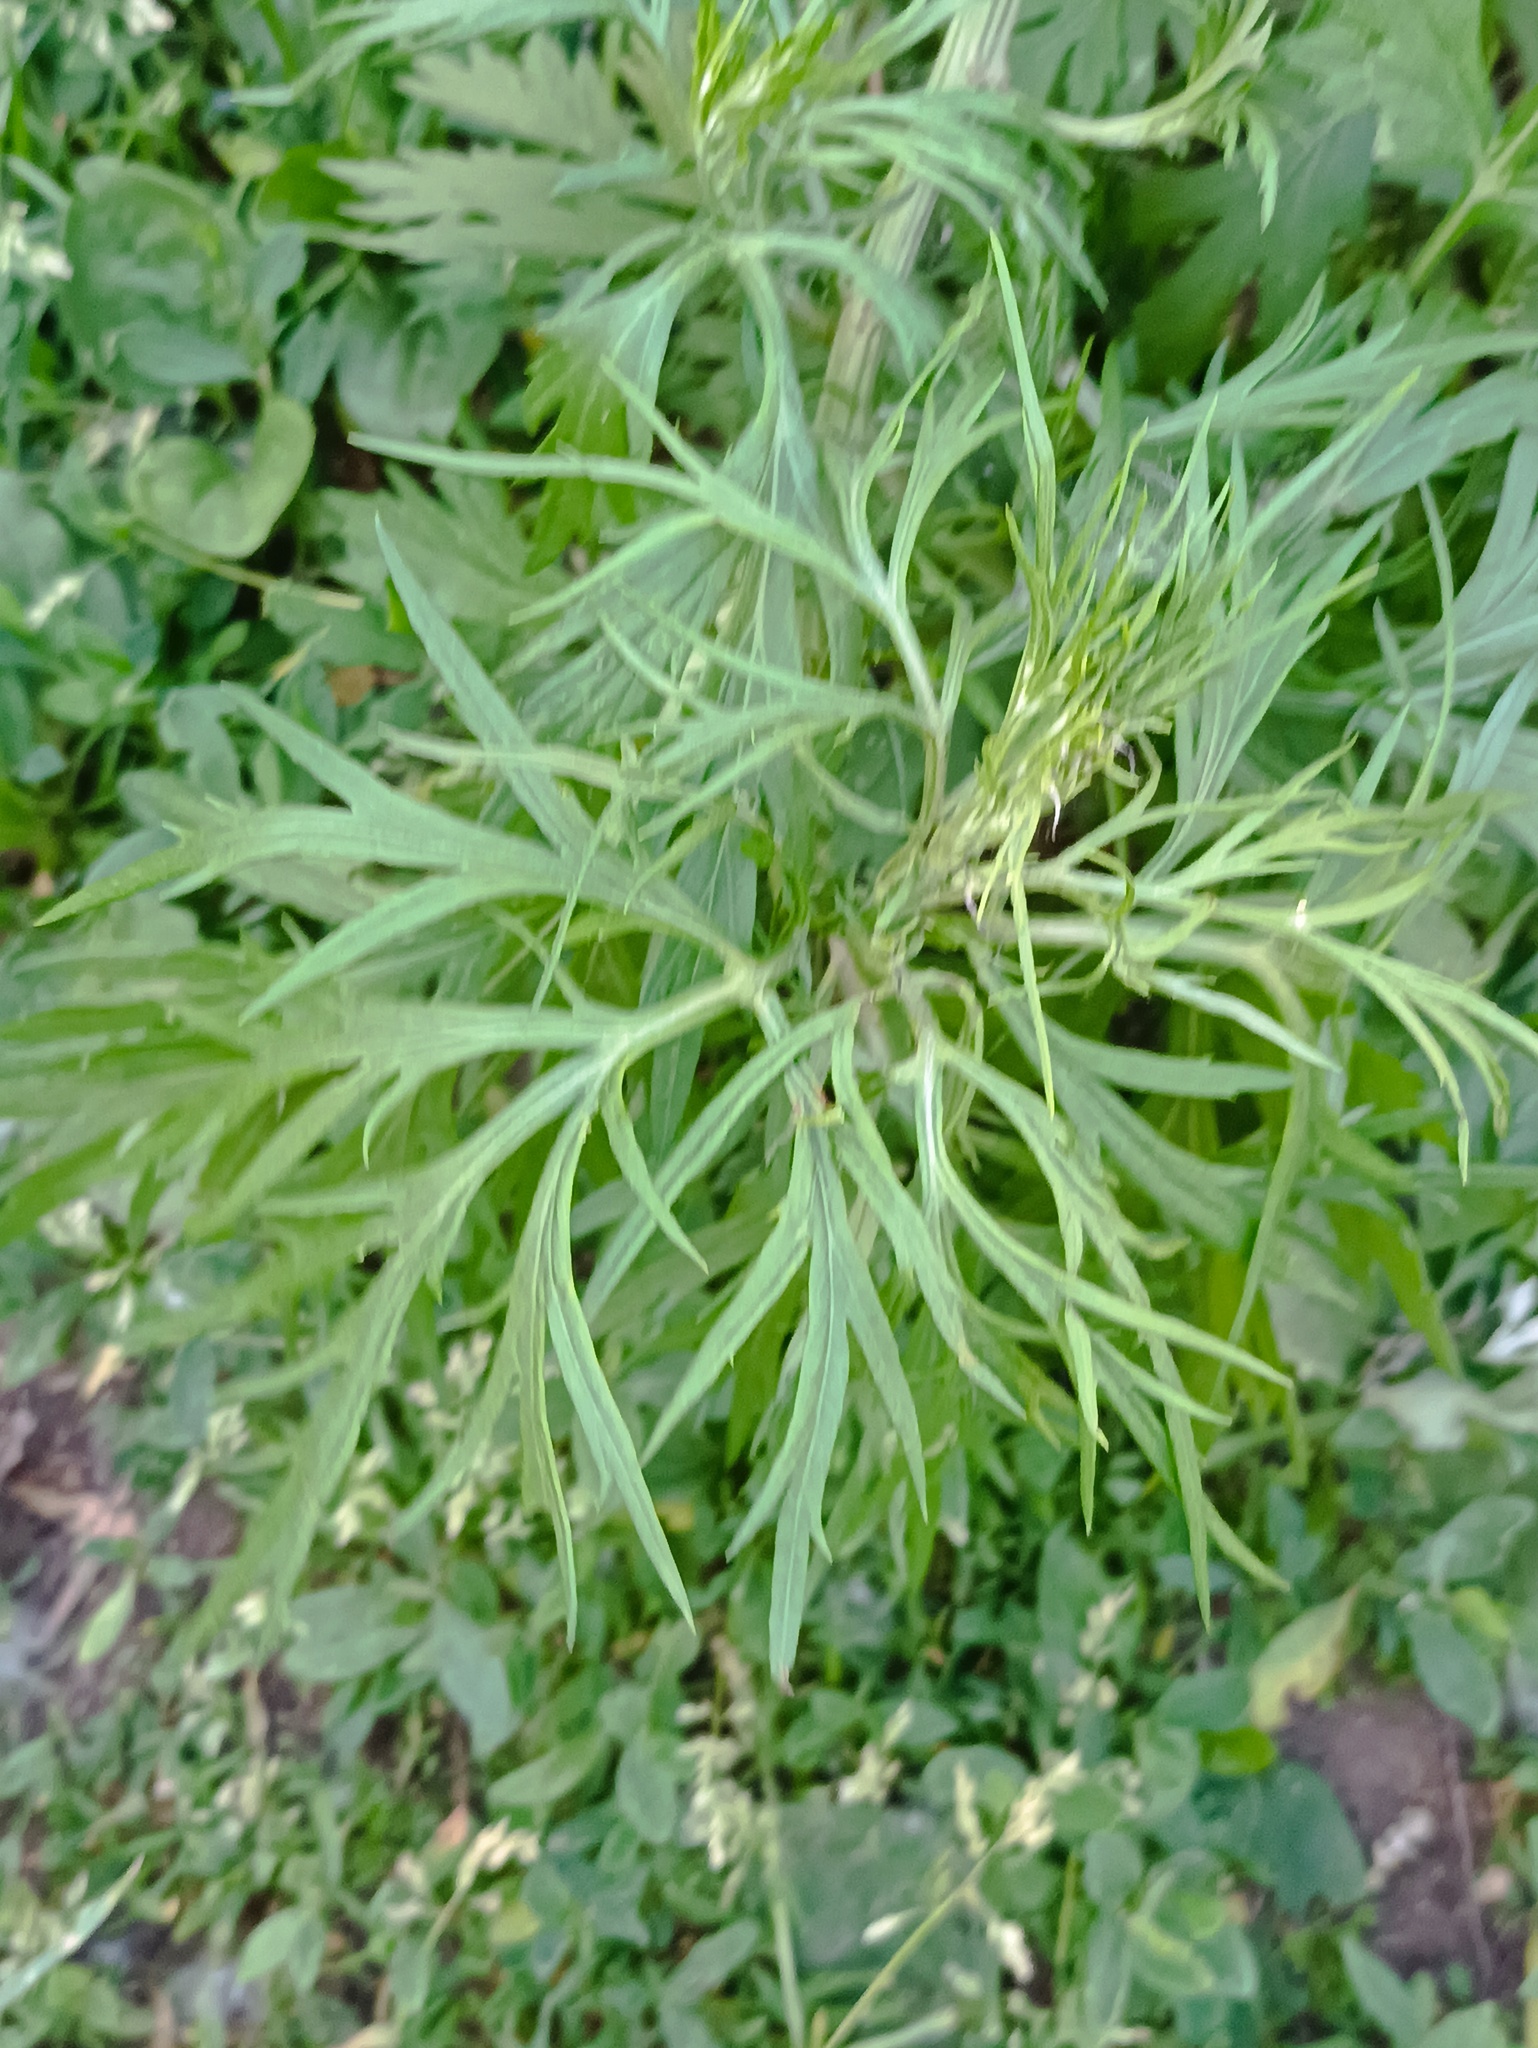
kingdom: Plantae
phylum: Tracheophyta
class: Magnoliopsida
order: Asterales
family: Asteraceae
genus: Artemisia
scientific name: Artemisia vulgaris
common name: Mugwort
